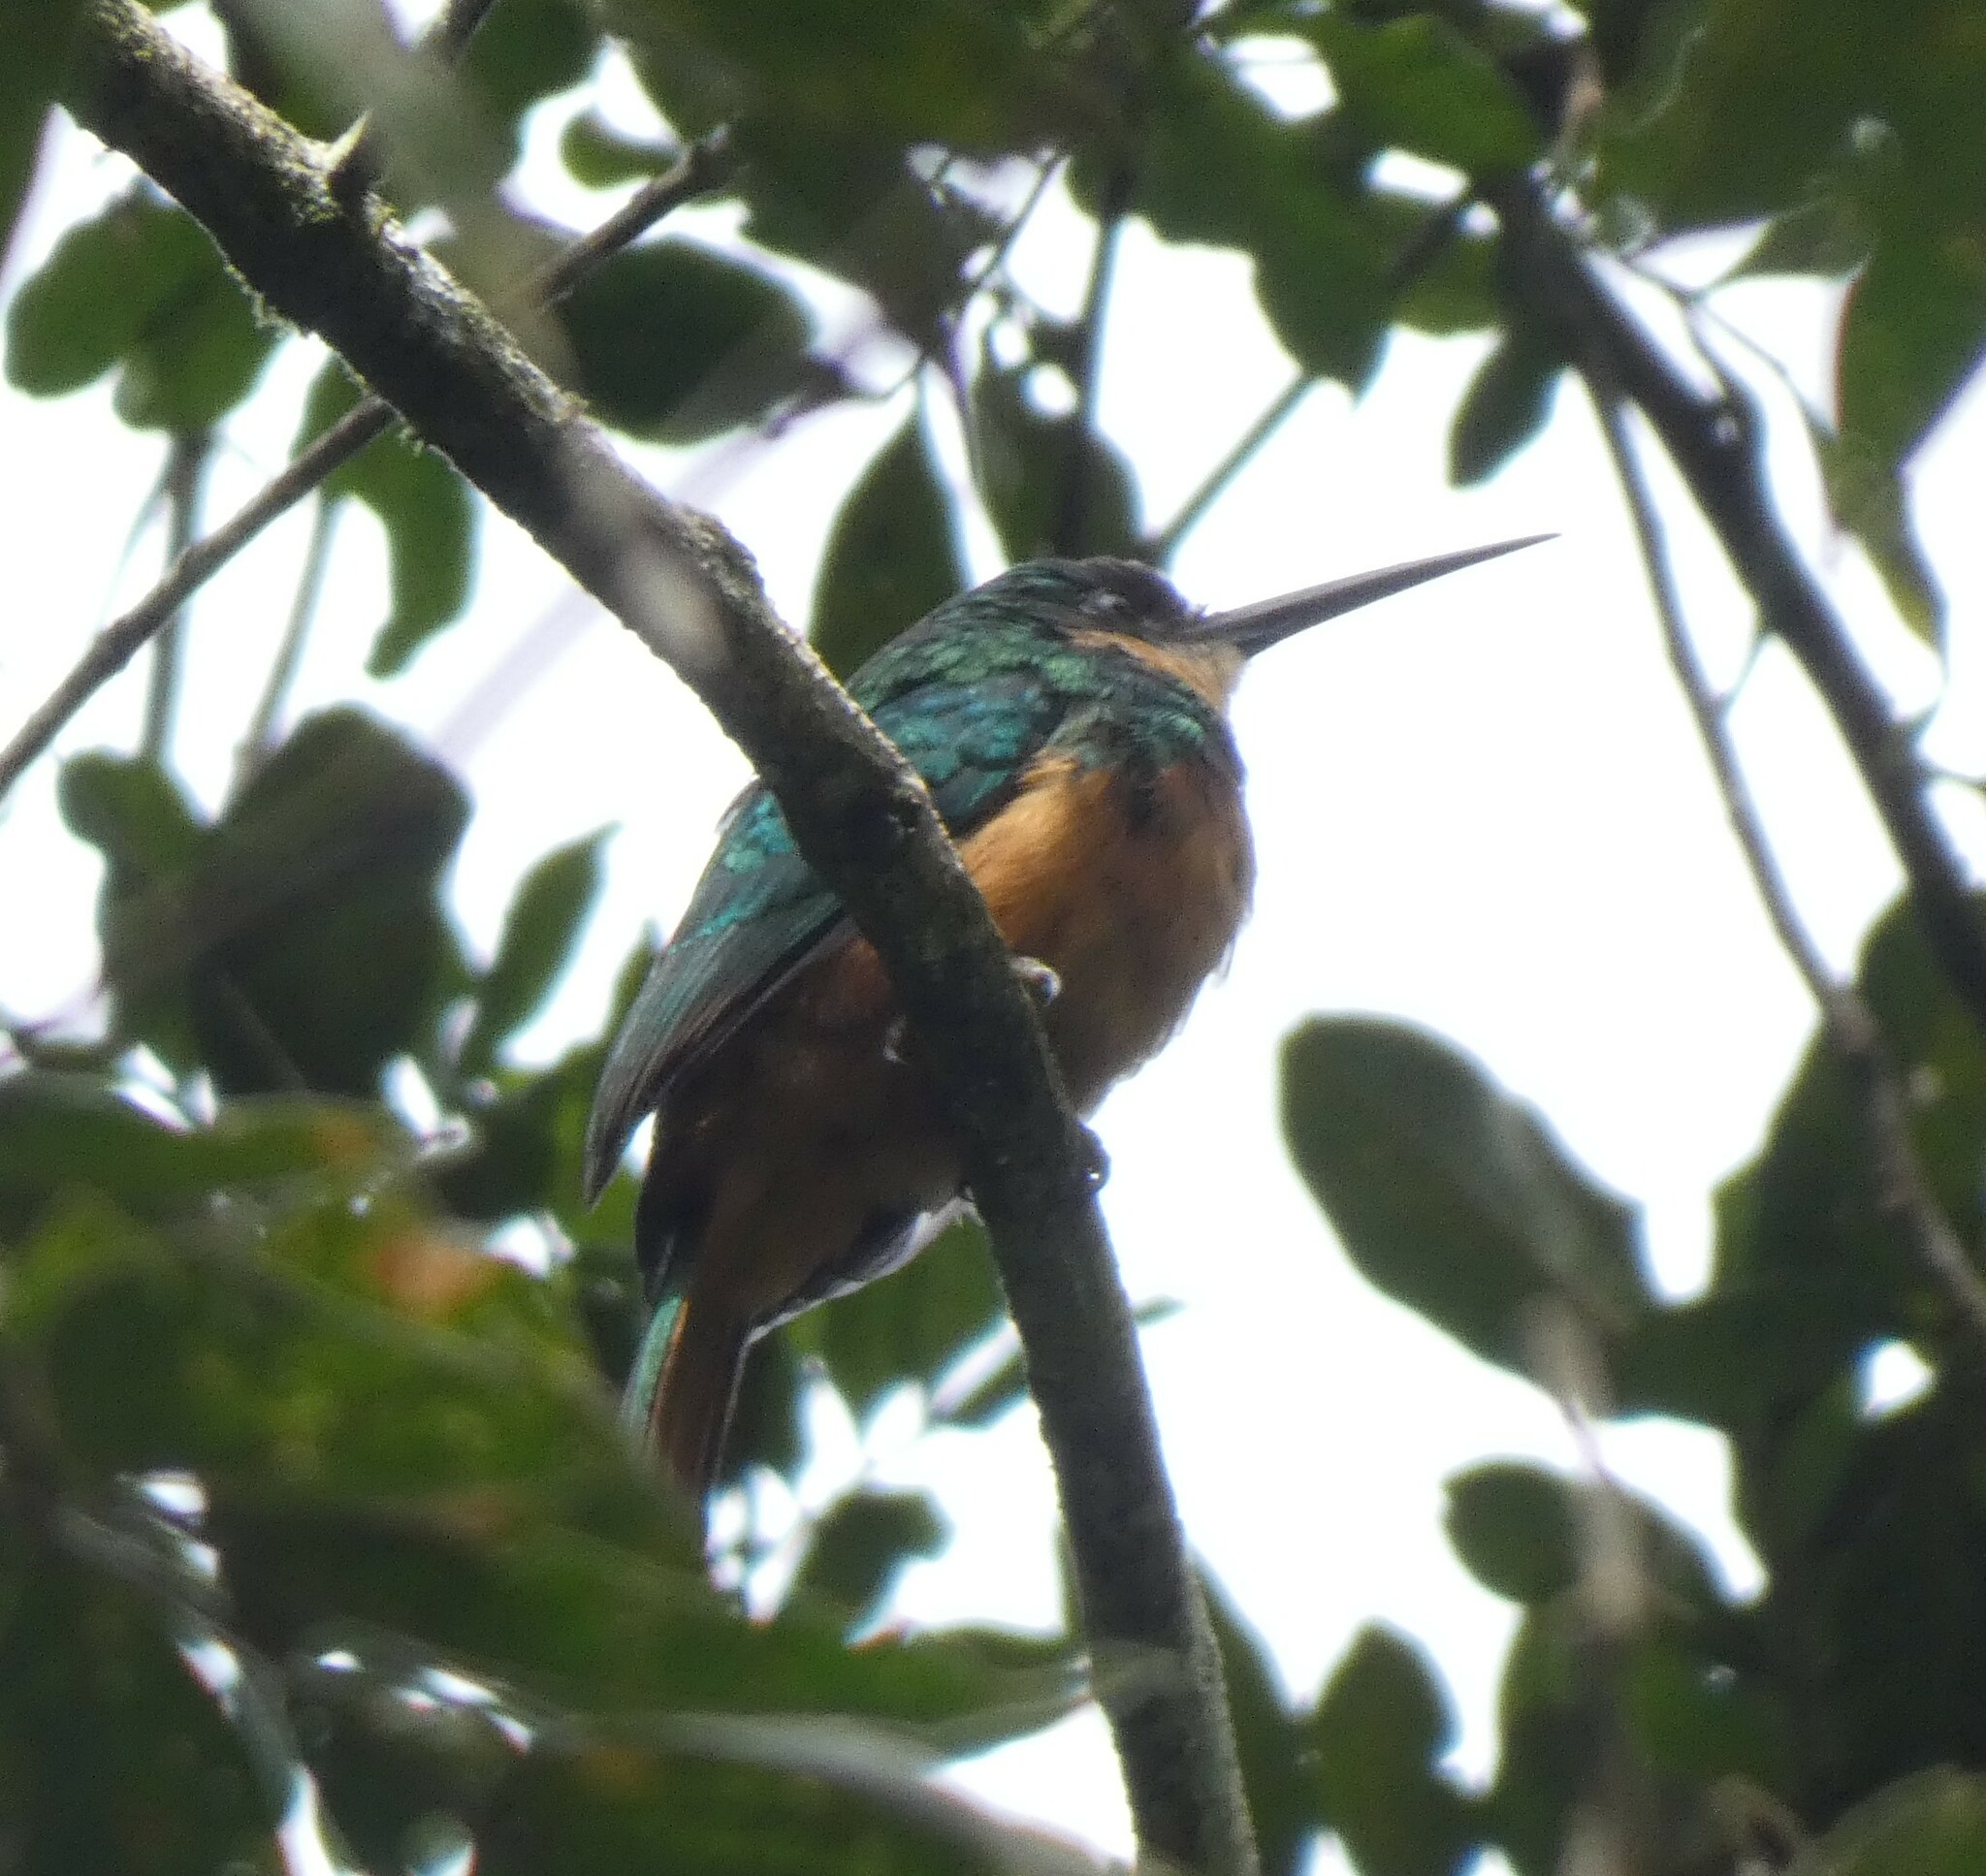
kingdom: Animalia
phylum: Chordata
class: Aves
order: Piciformes
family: Galbulidae
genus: Galbula
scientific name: Galbula ruficauda
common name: Rufous-tailed jacamar
